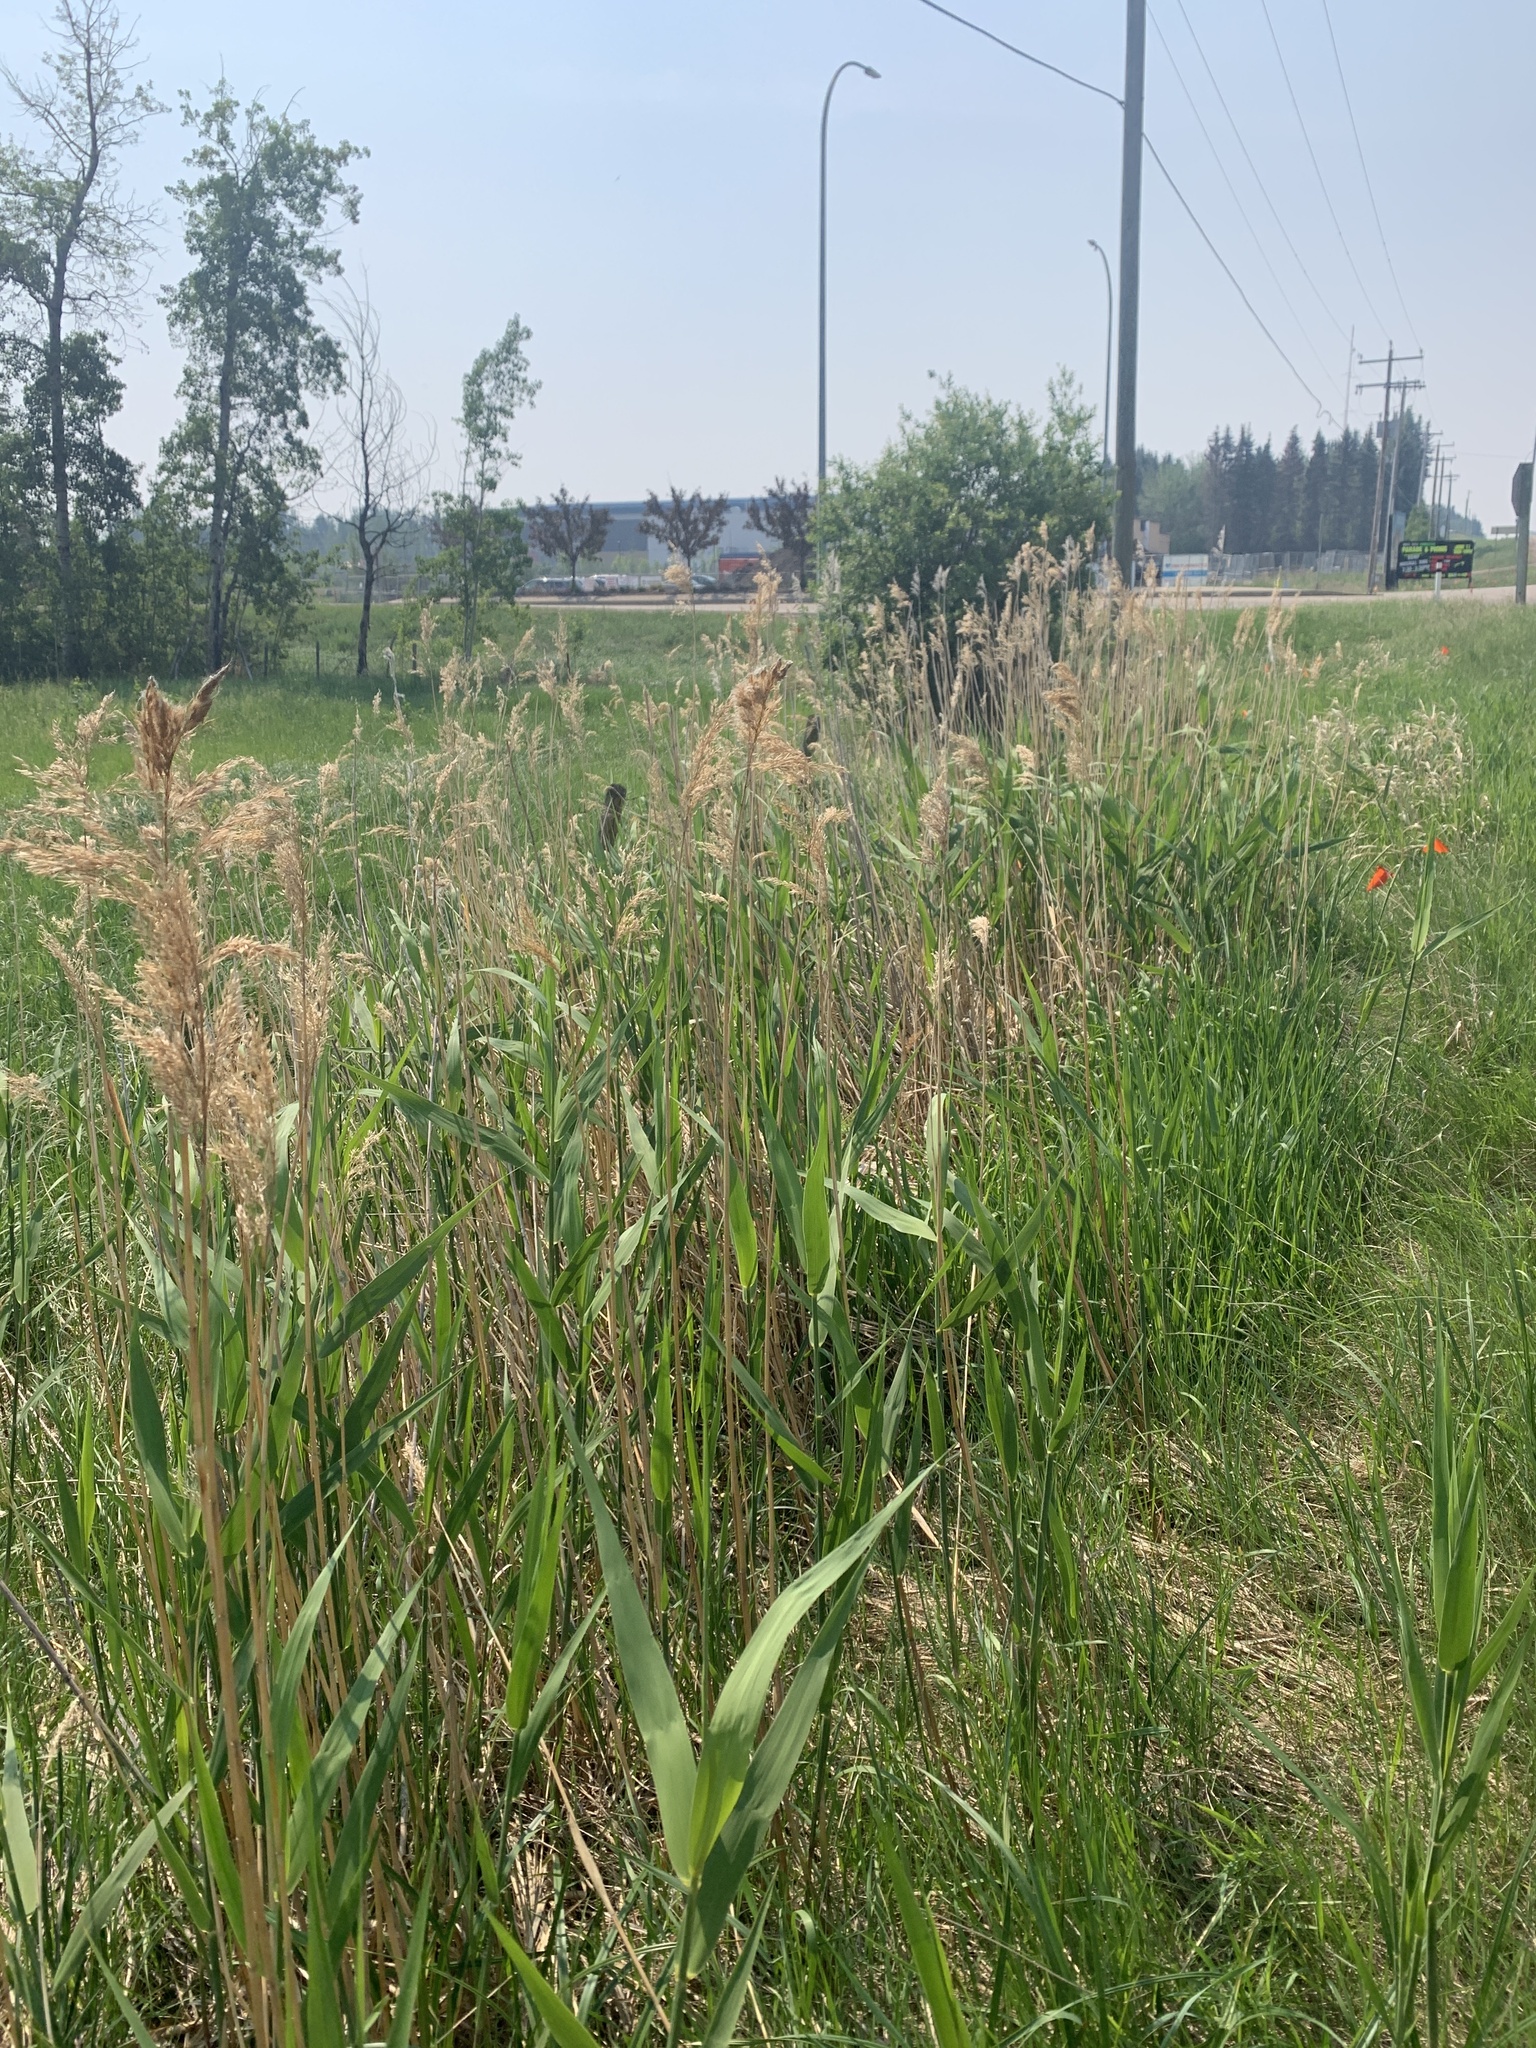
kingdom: Plantae
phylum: Tracheophyta
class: Liliopsida
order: Poales
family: Poaceae
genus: Phragmites
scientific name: Phragmites australis
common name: Common reed
